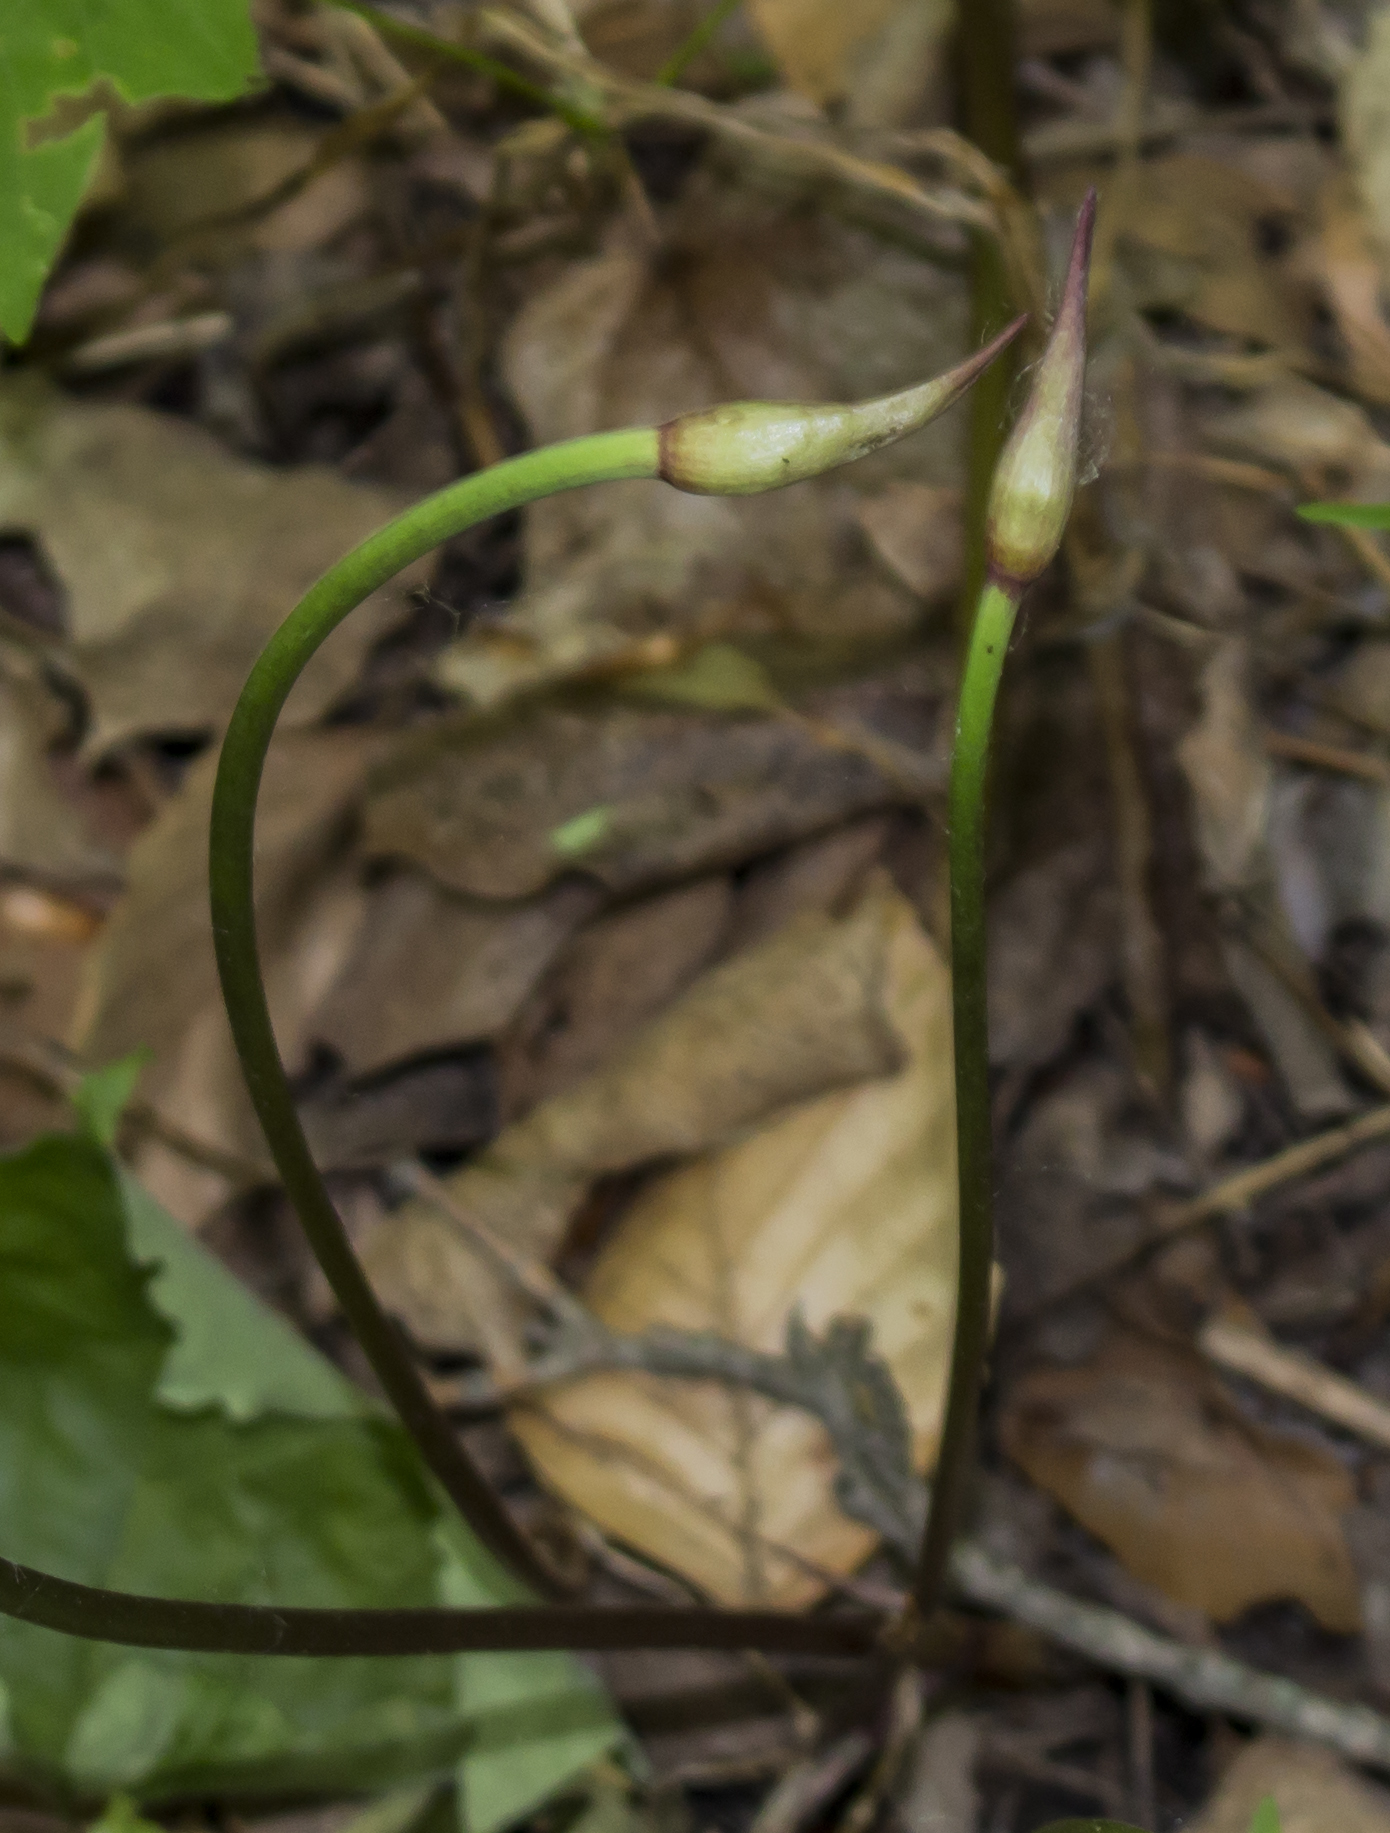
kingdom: Plantae
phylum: Tracheophyta
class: Liliopsida
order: Asparagales
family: Amaryllidaceae
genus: Allium
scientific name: Allium tricoccum
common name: Ramp
